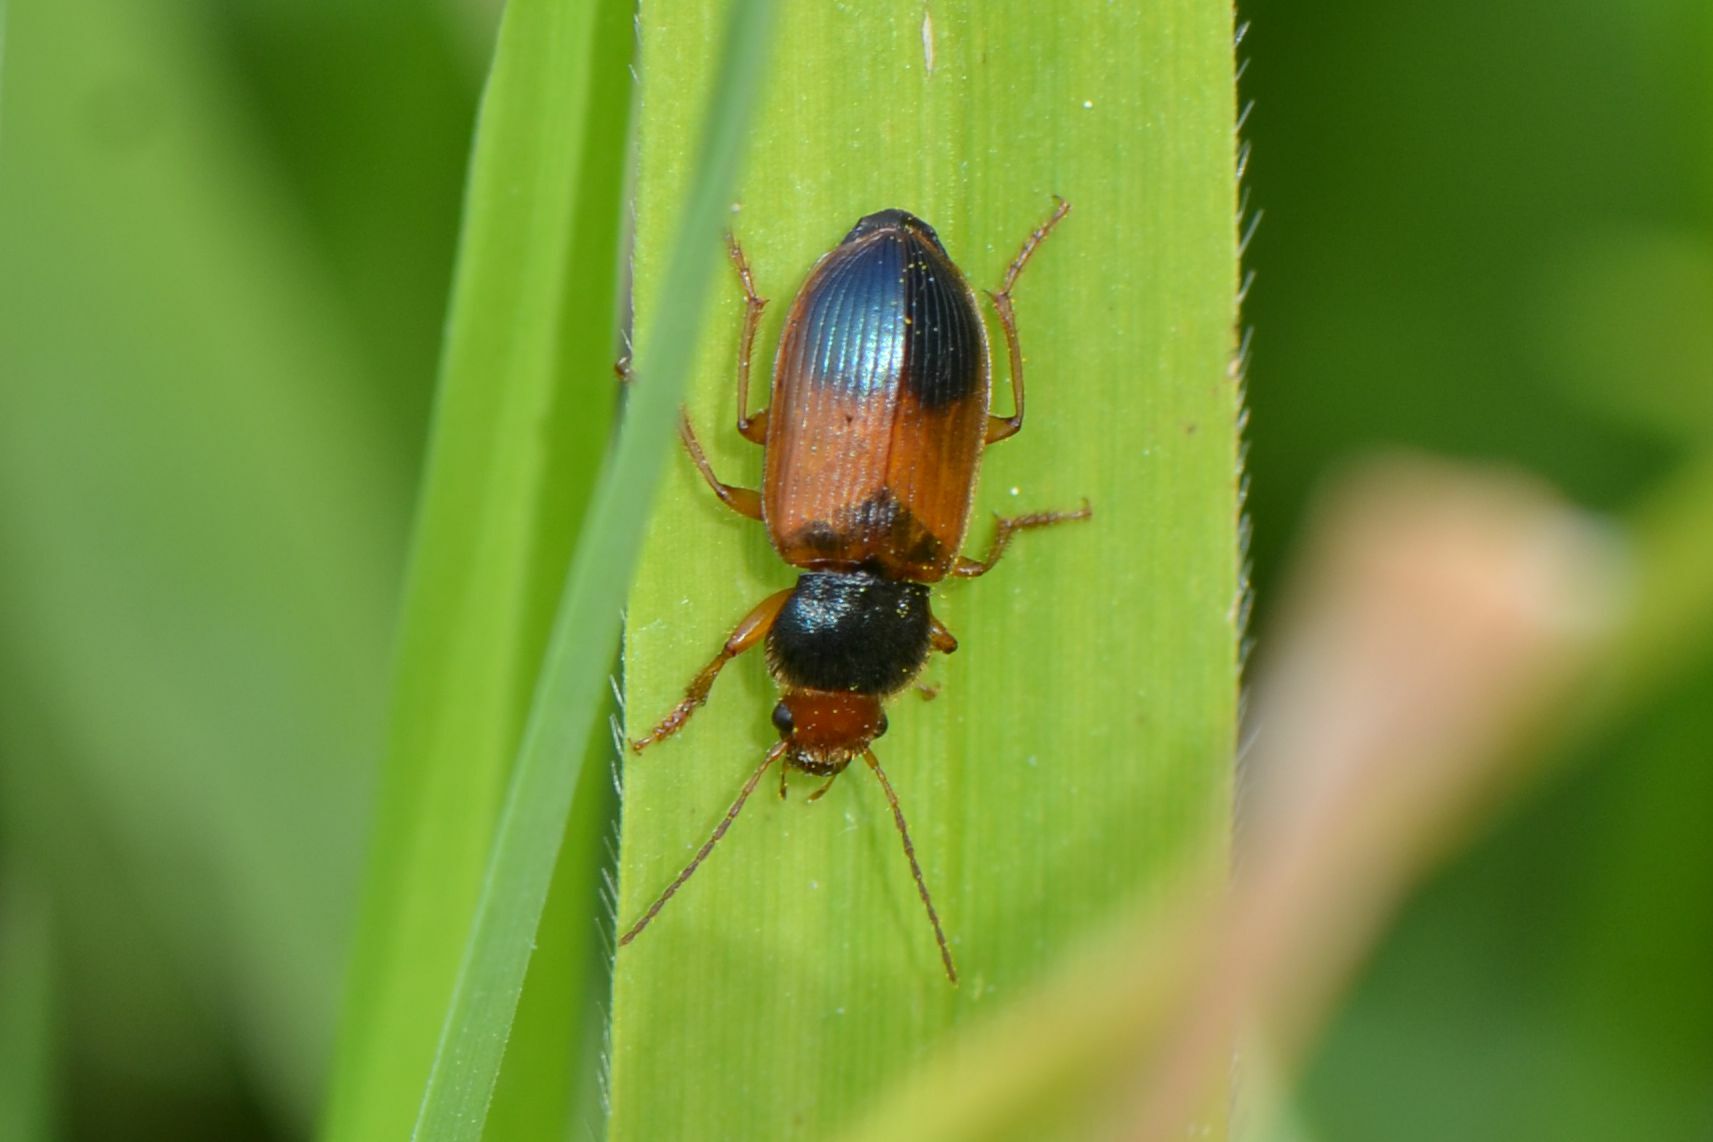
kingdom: Animalia
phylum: Arthropoda
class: Insecta
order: Coleoptera
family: Carabidae
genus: Diachromus
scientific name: Diachromus germanus
